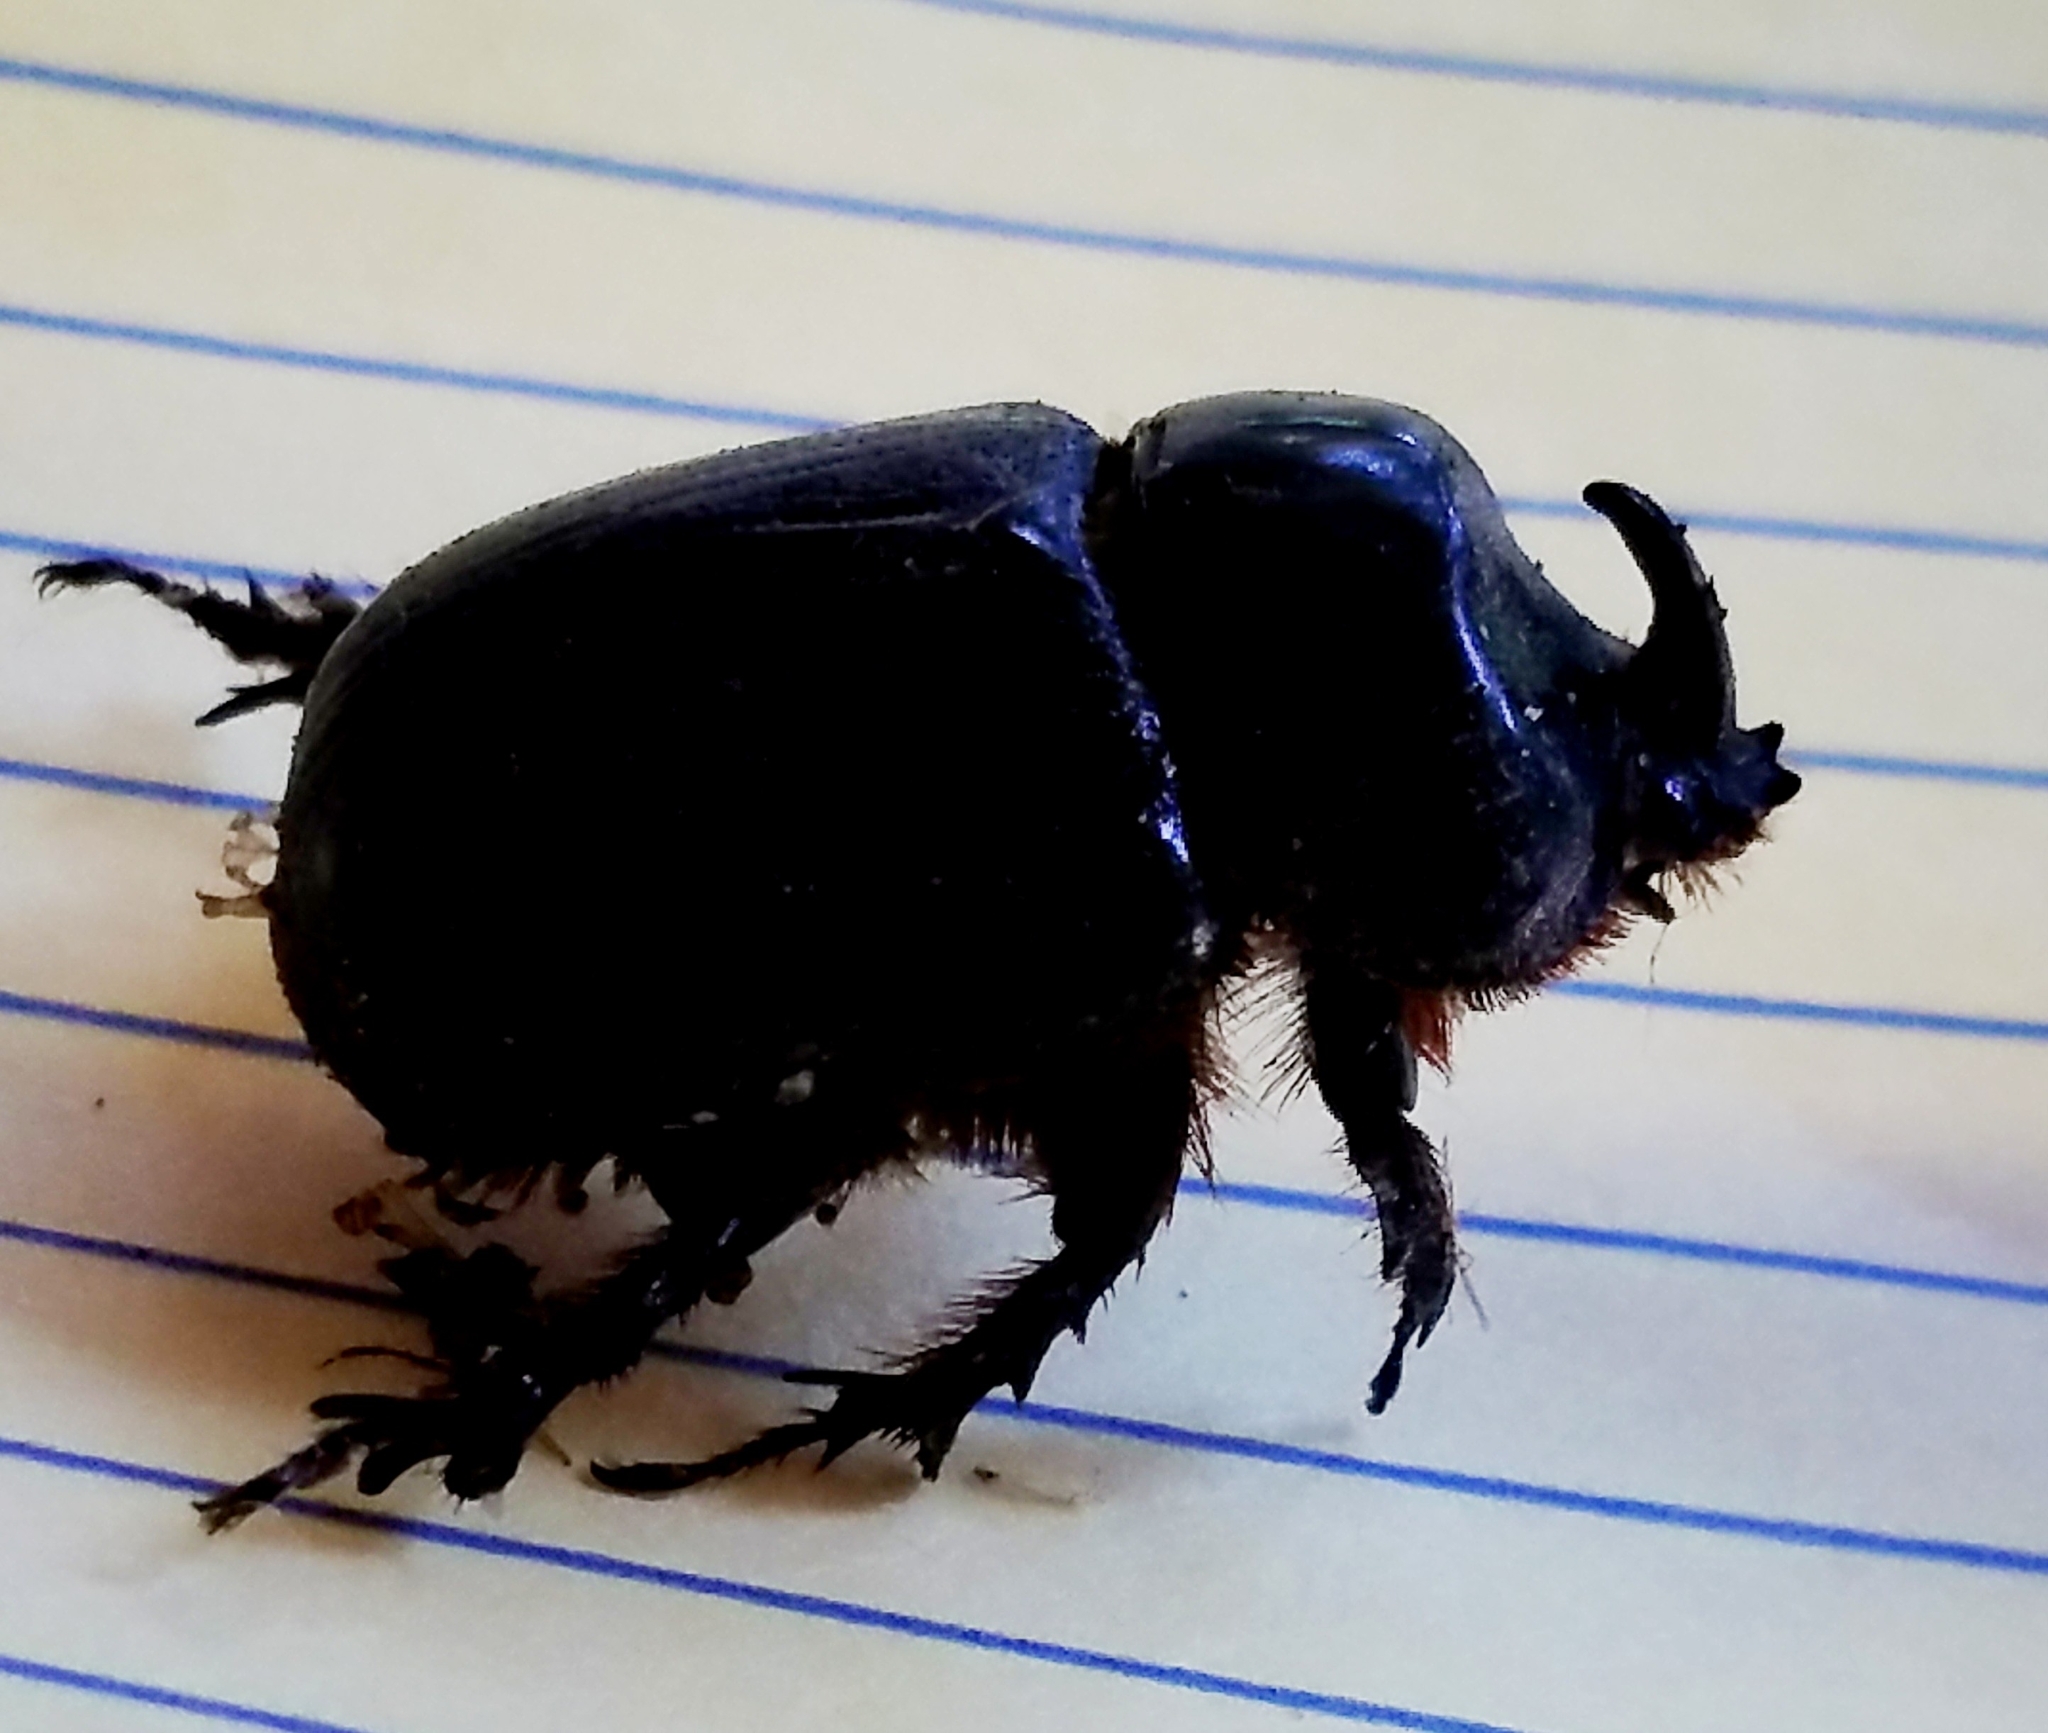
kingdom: Animalia
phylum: Arthropoda
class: Insecta
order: Coleoptera
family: Scarabaeidae
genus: Xyloryctes
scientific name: Xyloryctes jamaicensis
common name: Eastern rhinoceros beetle
